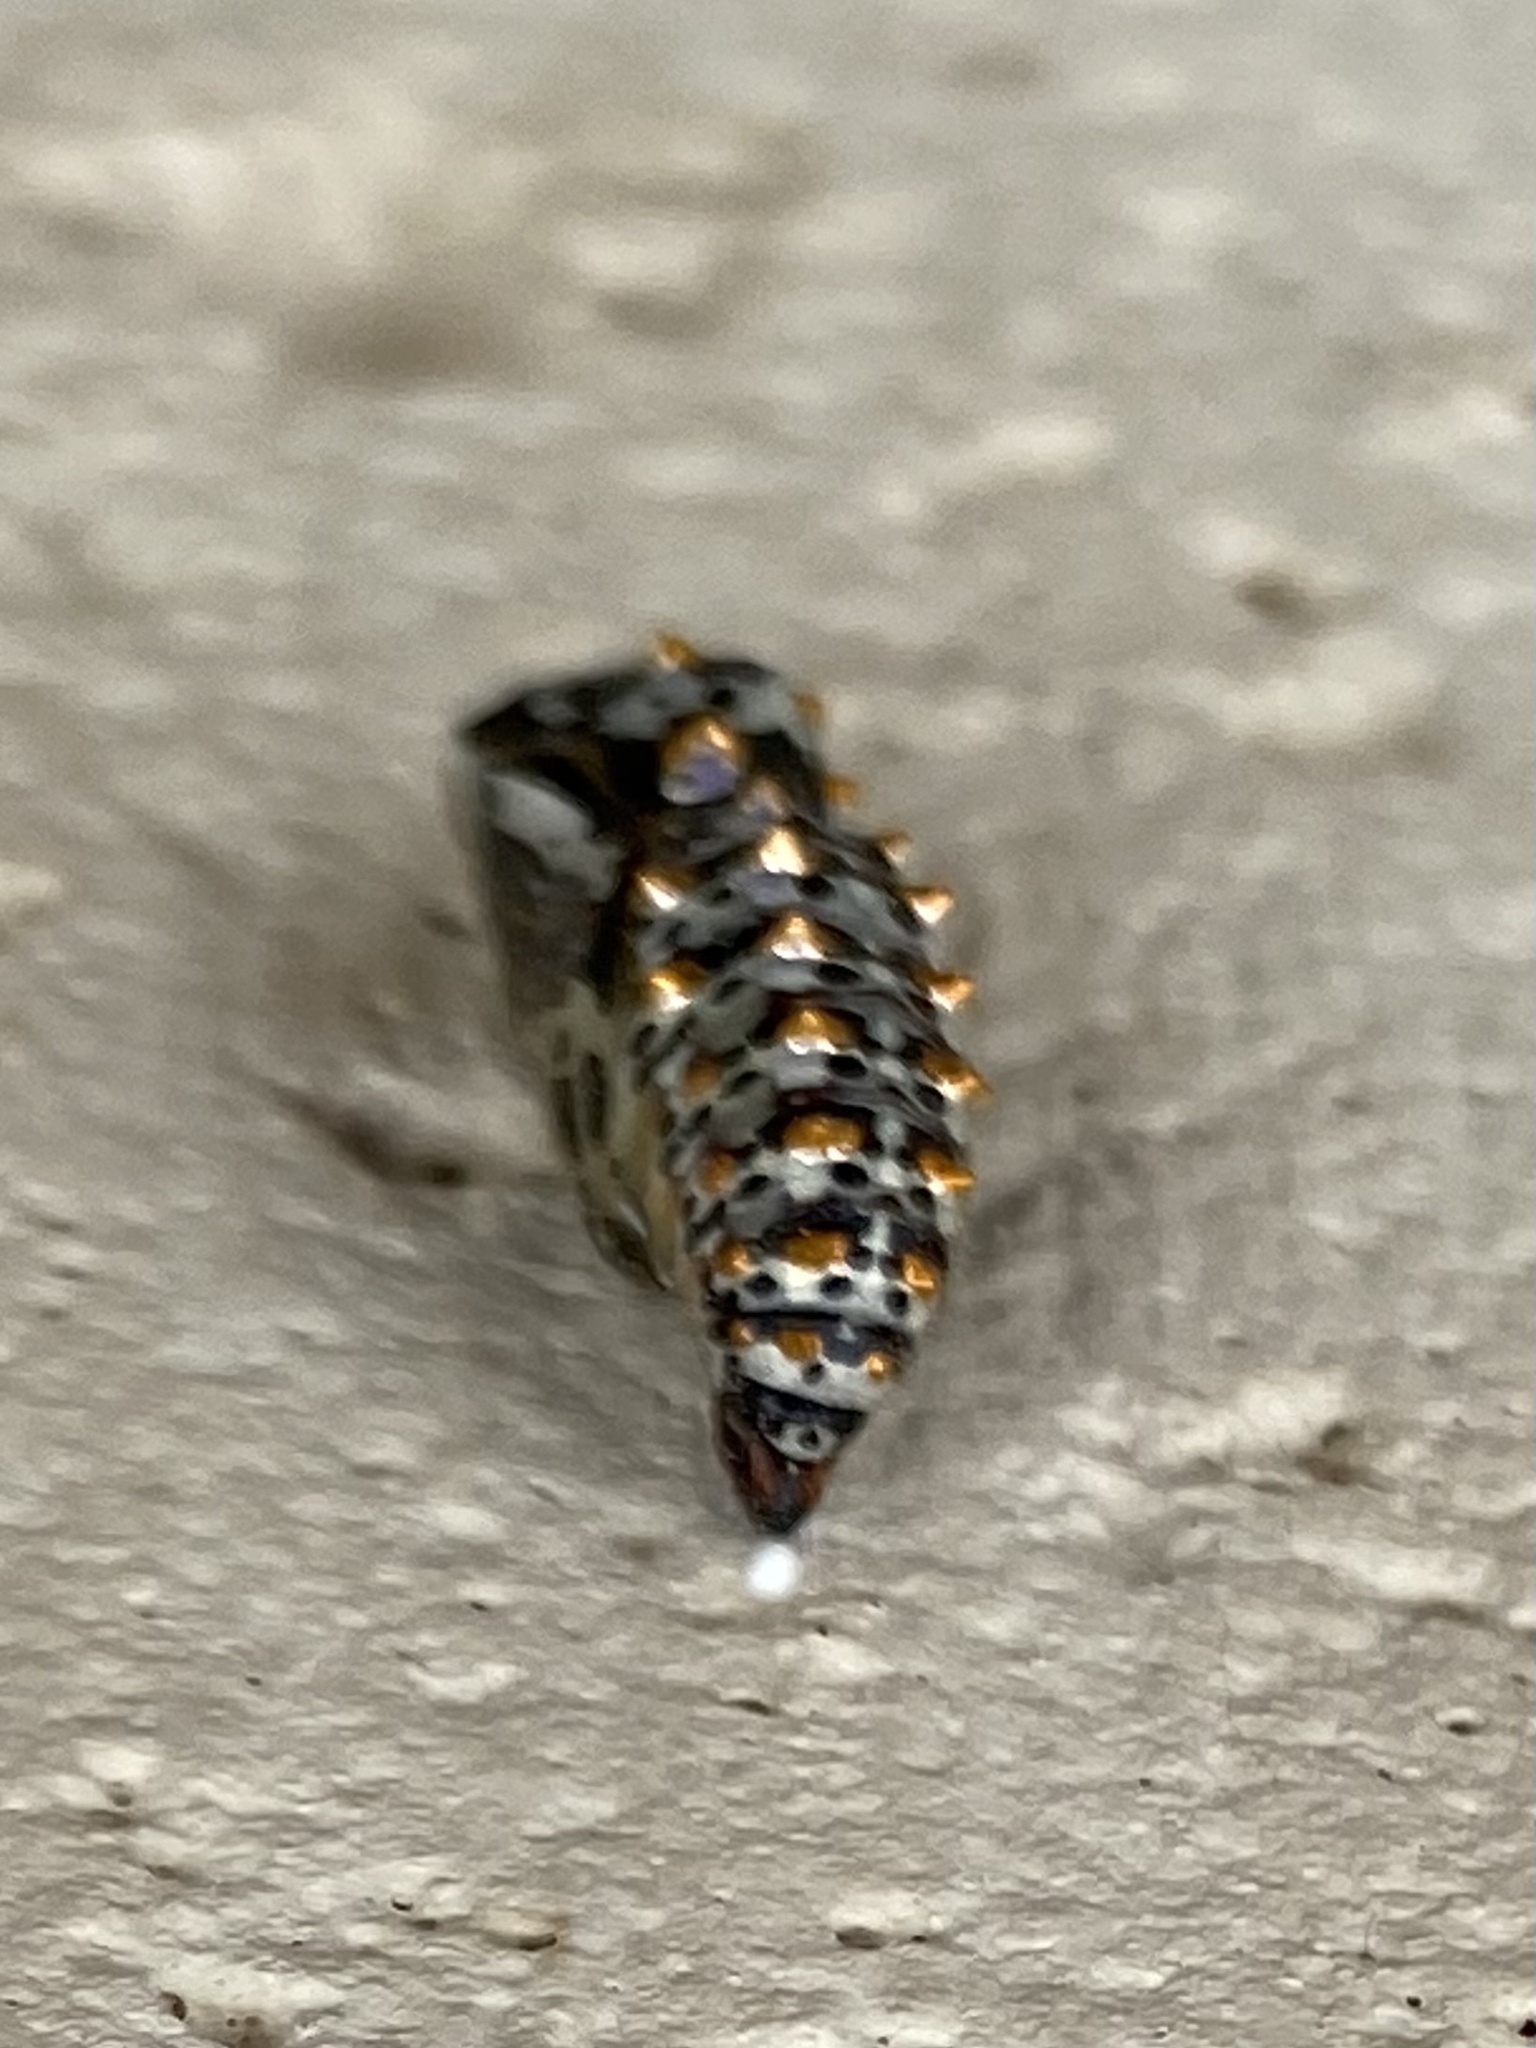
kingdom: Animalia
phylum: Arthropoda
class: Insecta
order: Lepidoptera
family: Nymphalidae
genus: Euptoieta
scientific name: Euptoieta claudia
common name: Variegated fritillary
